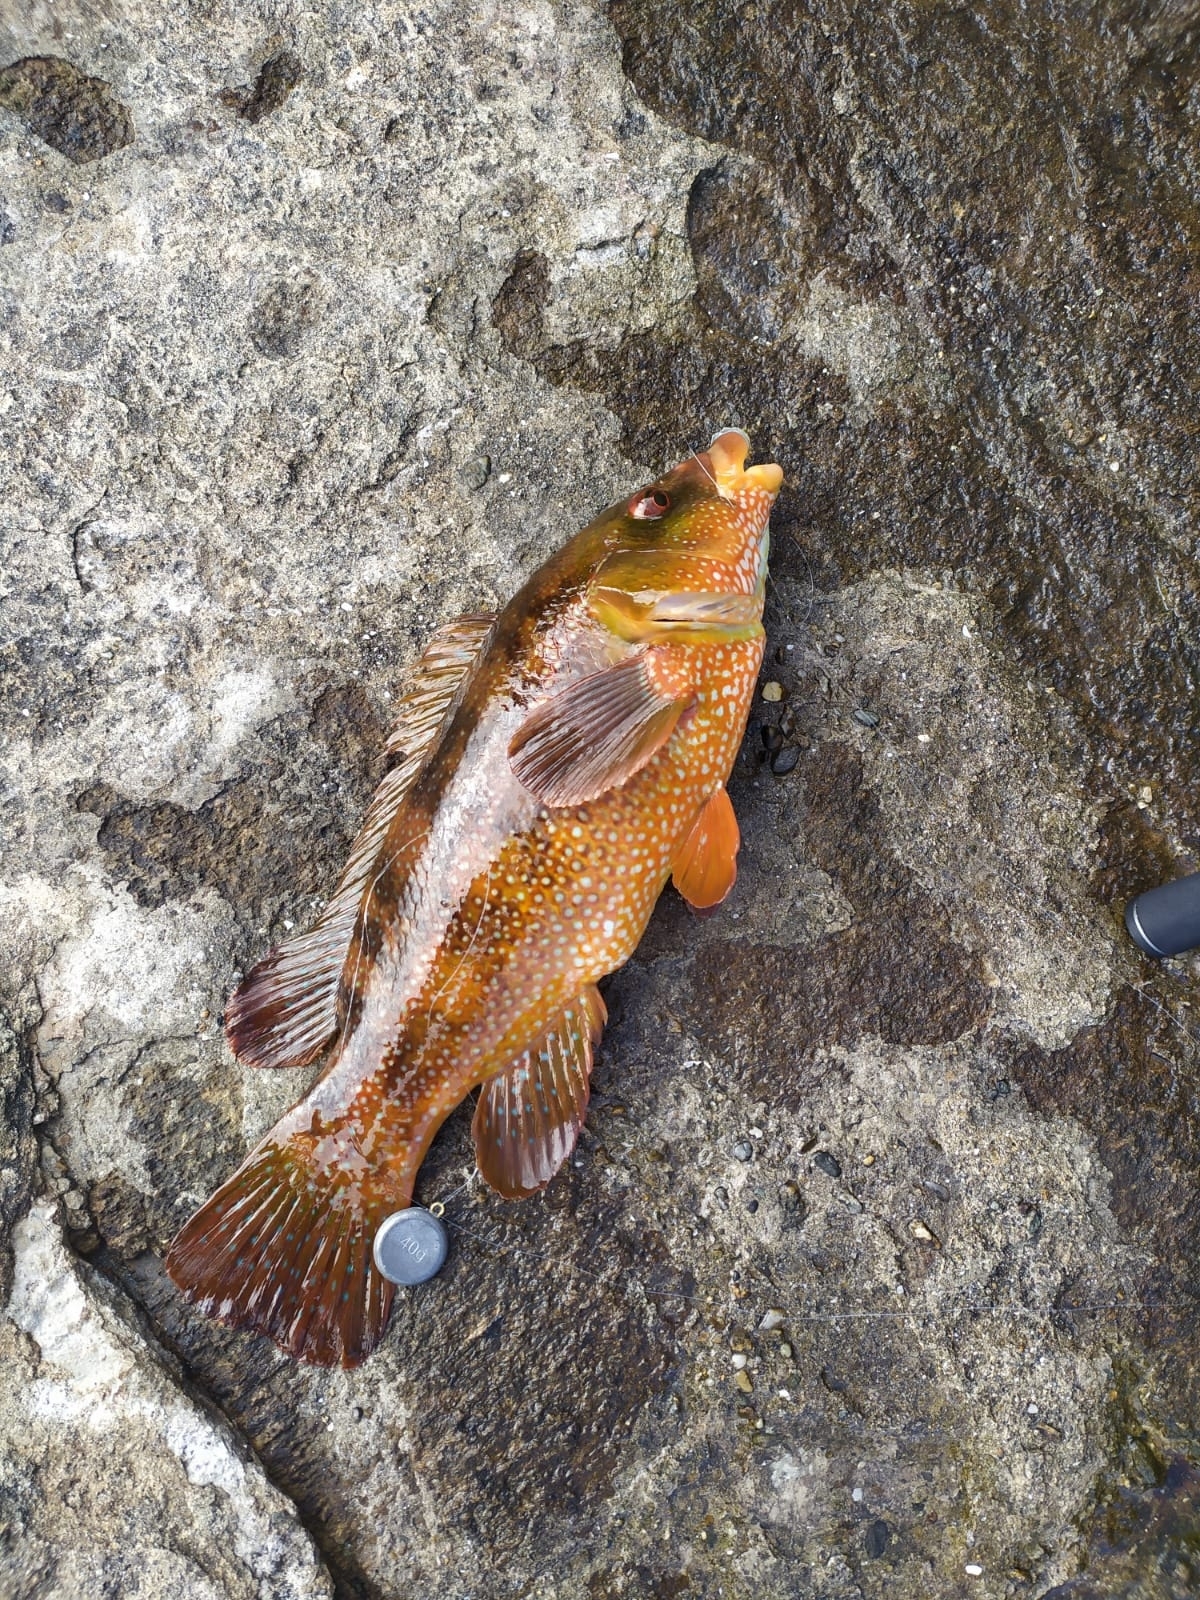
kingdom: Animalia
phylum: Chordata
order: Perciformes
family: Labridae
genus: Labrus
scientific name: Labrus bergylta
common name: Ballan wrasse
